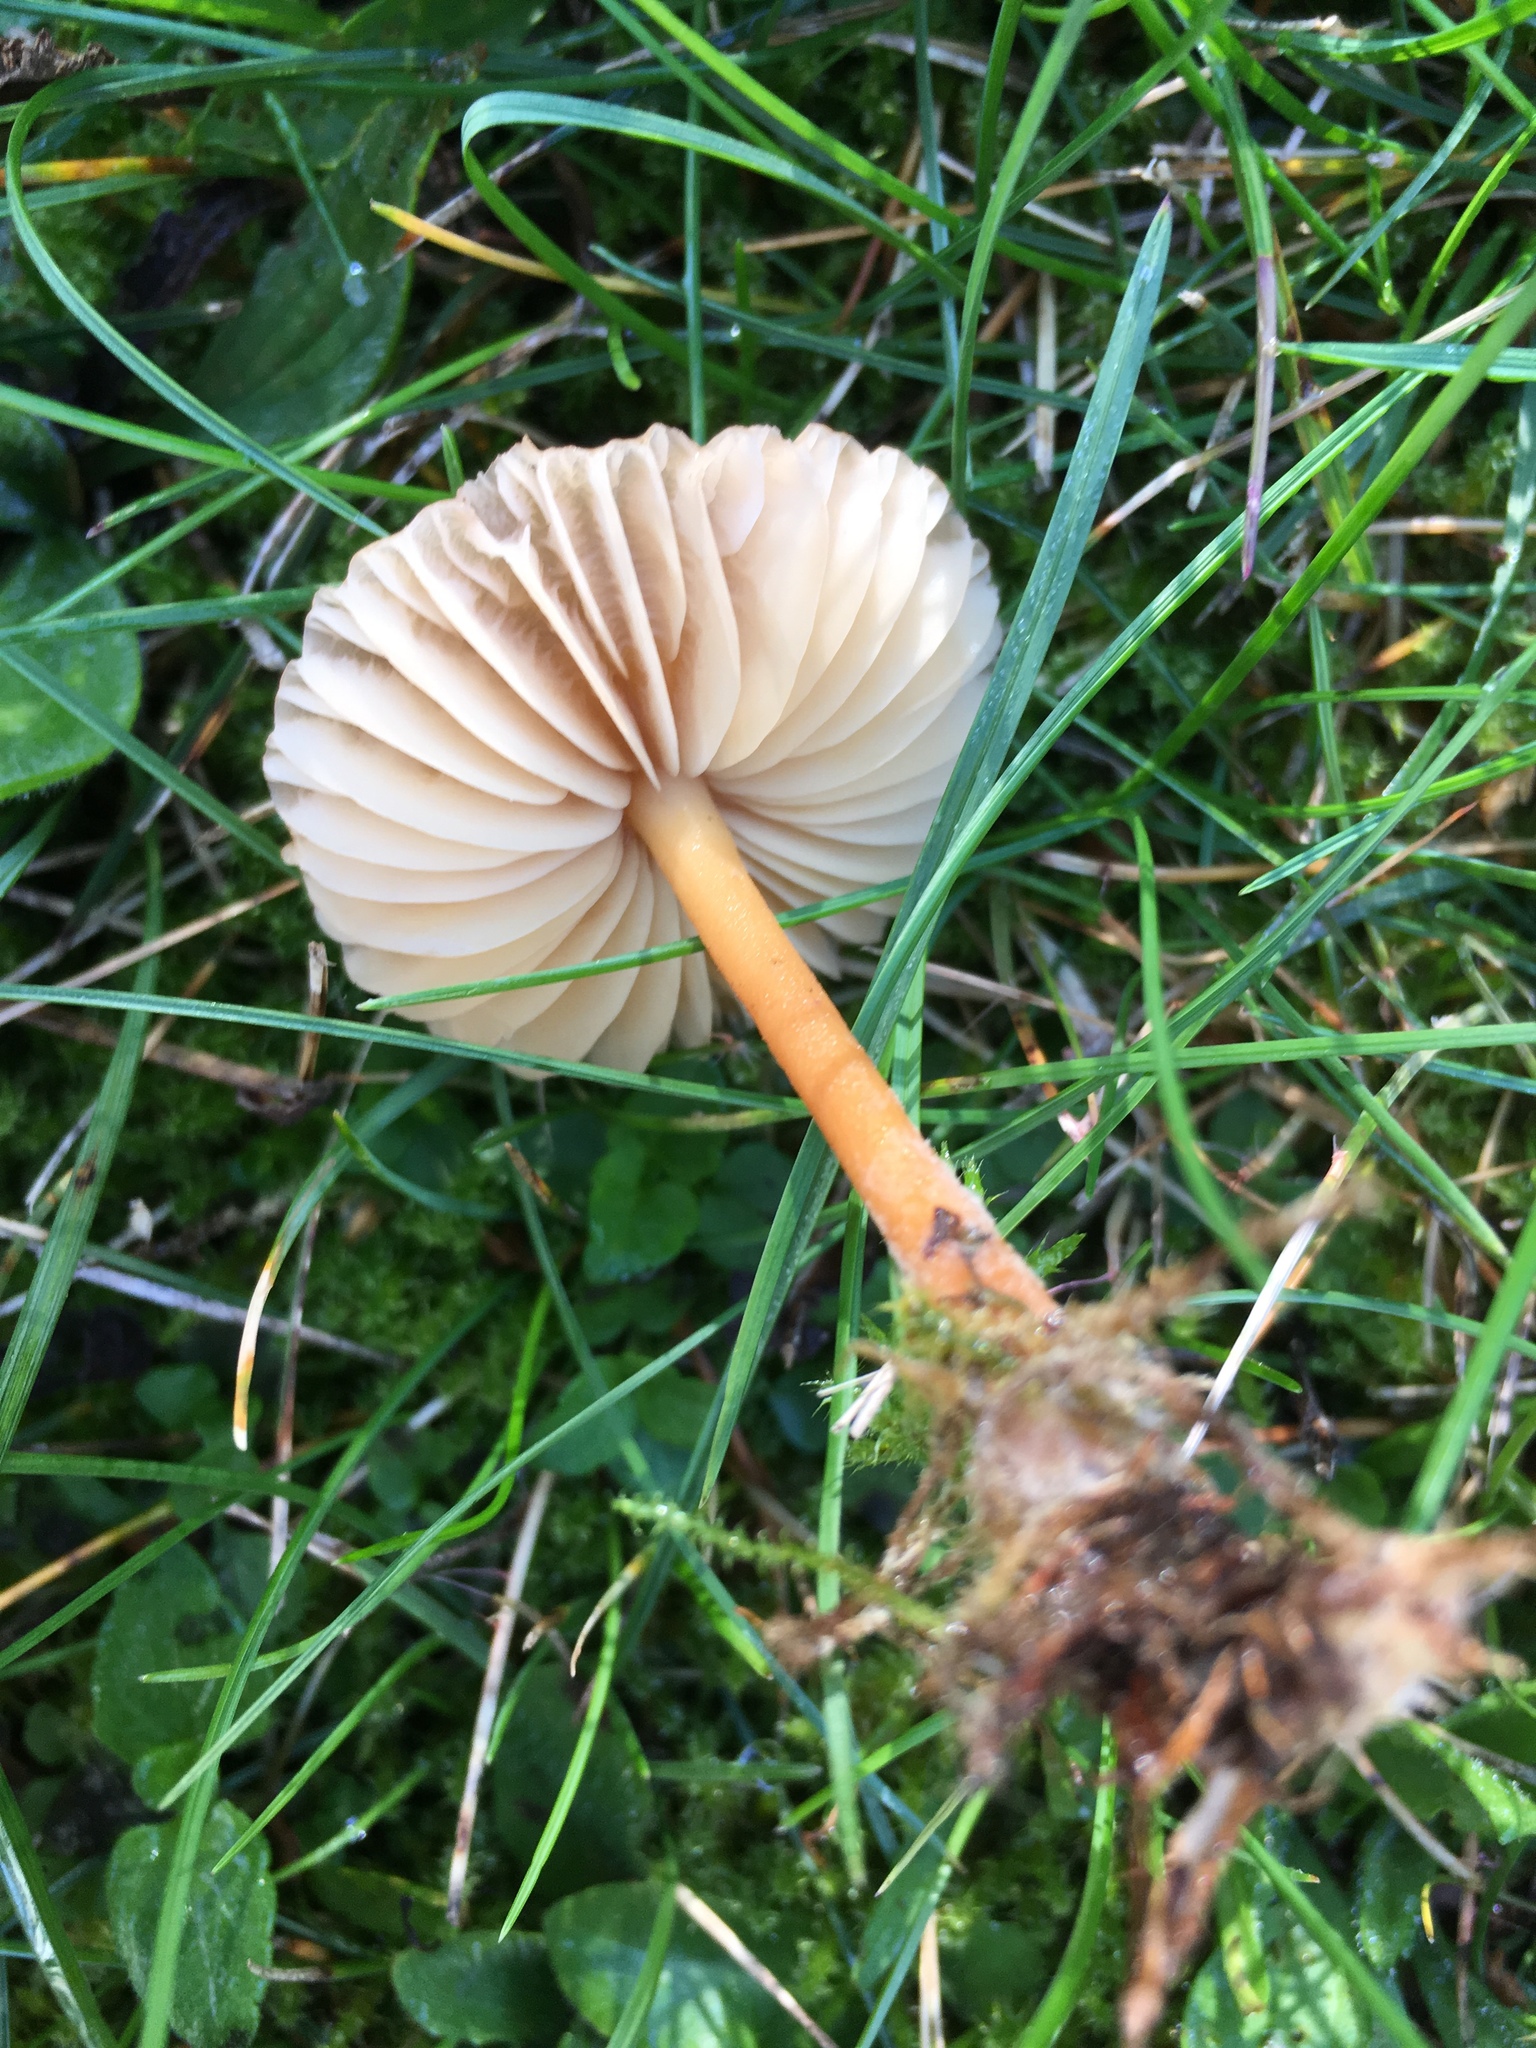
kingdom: Fungi
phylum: Basidiomycota
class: Agaricomycetes
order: Agaricales
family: Marasmiaceae
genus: Marasmius
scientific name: Marasmius oreades
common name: Fairy ring champignon
